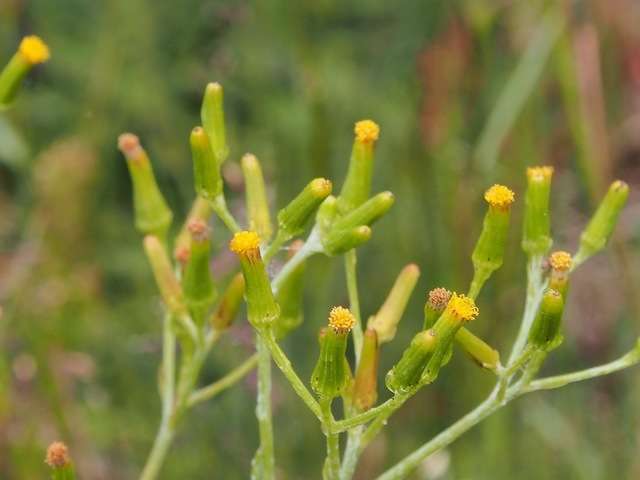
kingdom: Plantae
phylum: Tracheophyta
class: Magnoliopsida
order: Asterales
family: Asteraceae
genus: Senecio
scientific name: Senecio gunnii
